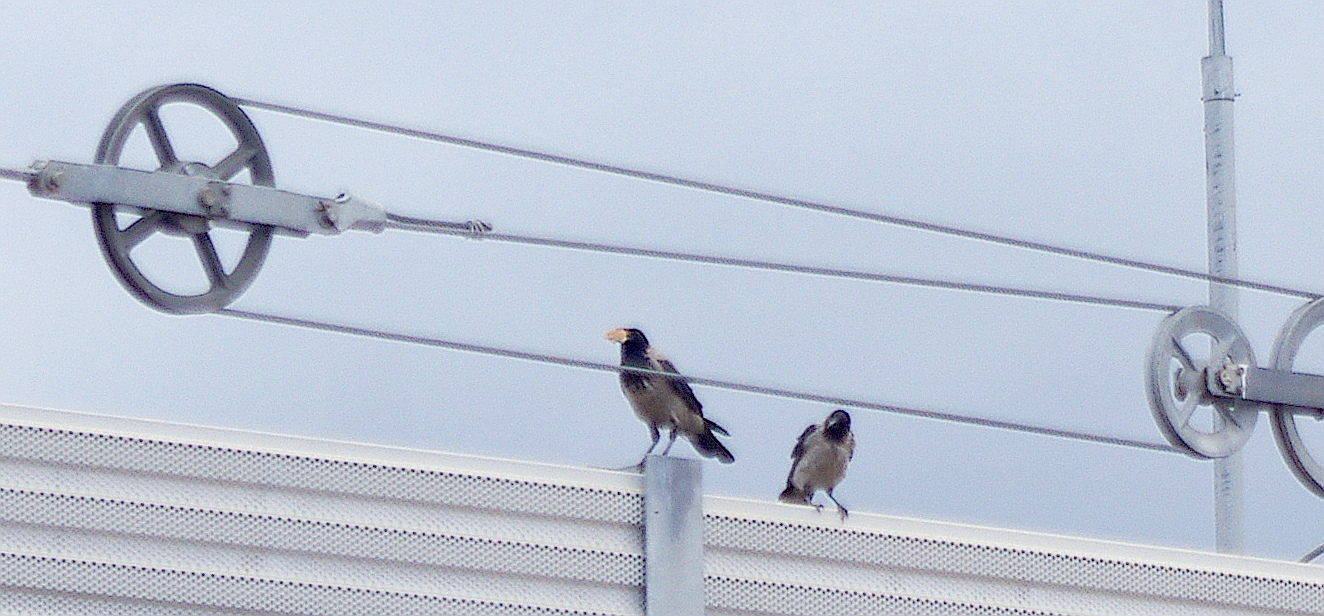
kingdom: Animalia
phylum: Chordata
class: Aves
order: Passeriformes
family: Corvidae
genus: Corvus
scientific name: Corvus cornix
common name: Hooded crow
